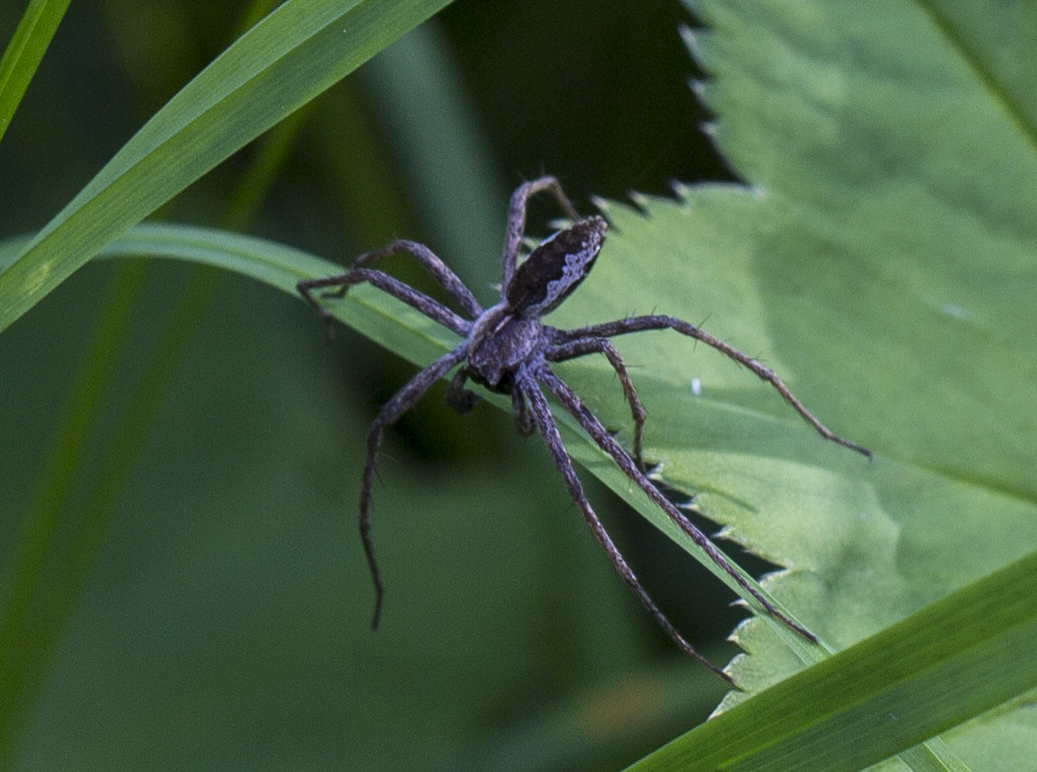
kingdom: Animalia
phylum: Arthropoda
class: Arachnida
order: Araneae
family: Pisauridae
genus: Pisaura
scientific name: Pisaura mirabilis
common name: Tent spider
